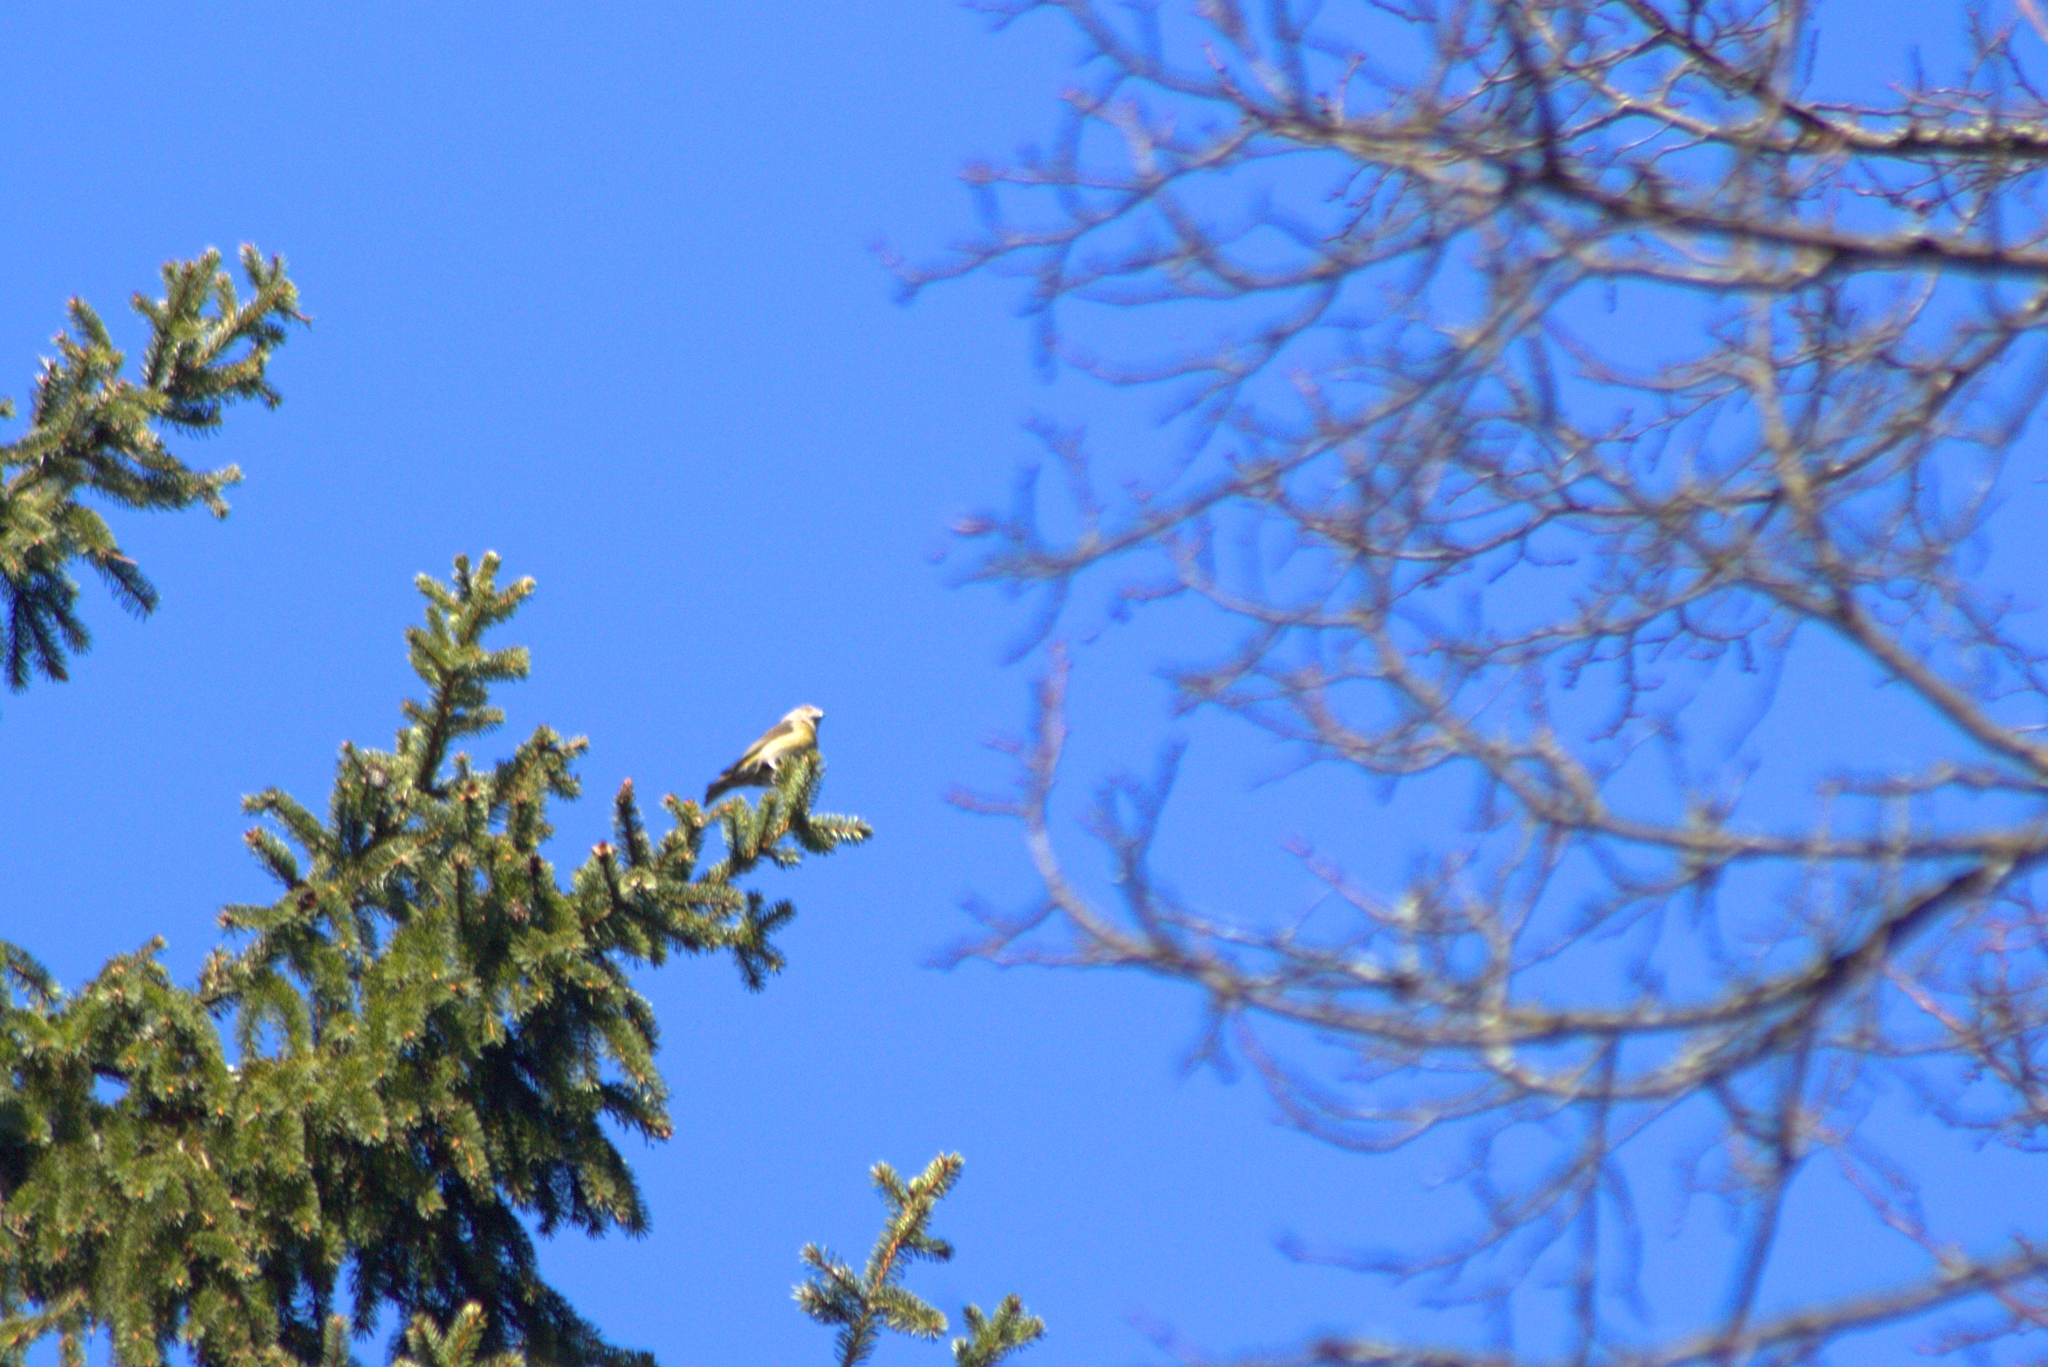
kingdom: Animalia
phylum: Chordata
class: Aves
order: Passeriformes
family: Fringillidae
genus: Coccothraustes
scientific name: Coccothraustes coccothraustes
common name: Hawfinch
